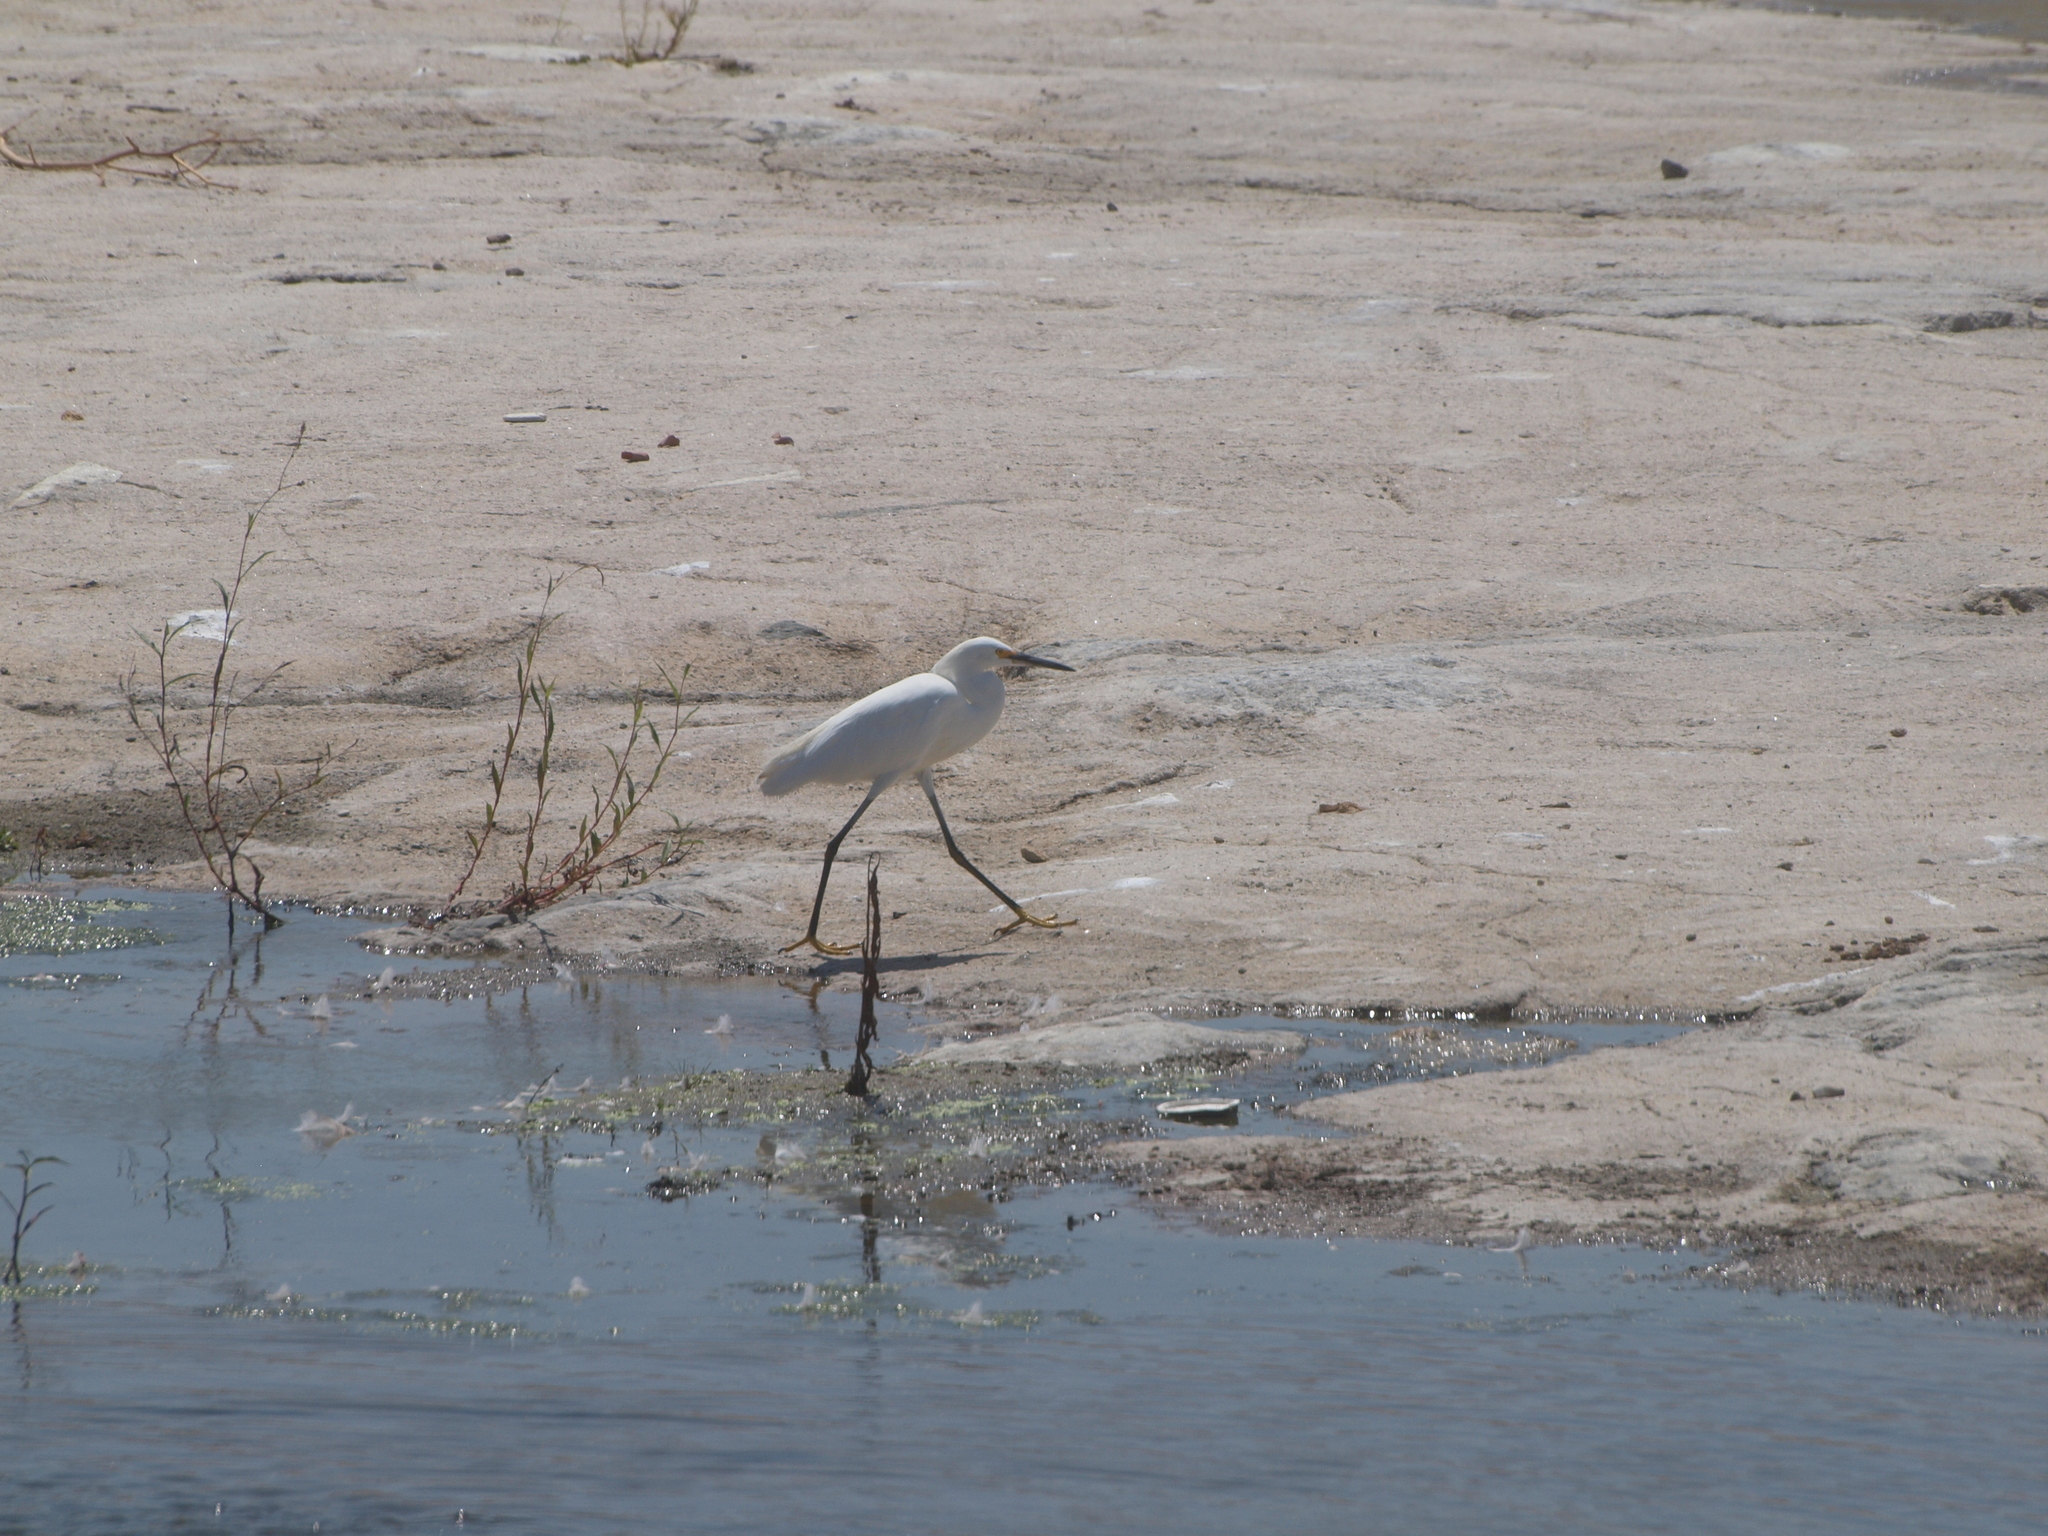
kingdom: Animalia
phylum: Chordata
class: Aves
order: Pelecaniformes
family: Ardeidae
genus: Egretta
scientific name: Egretta thula
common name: Snowy egret
